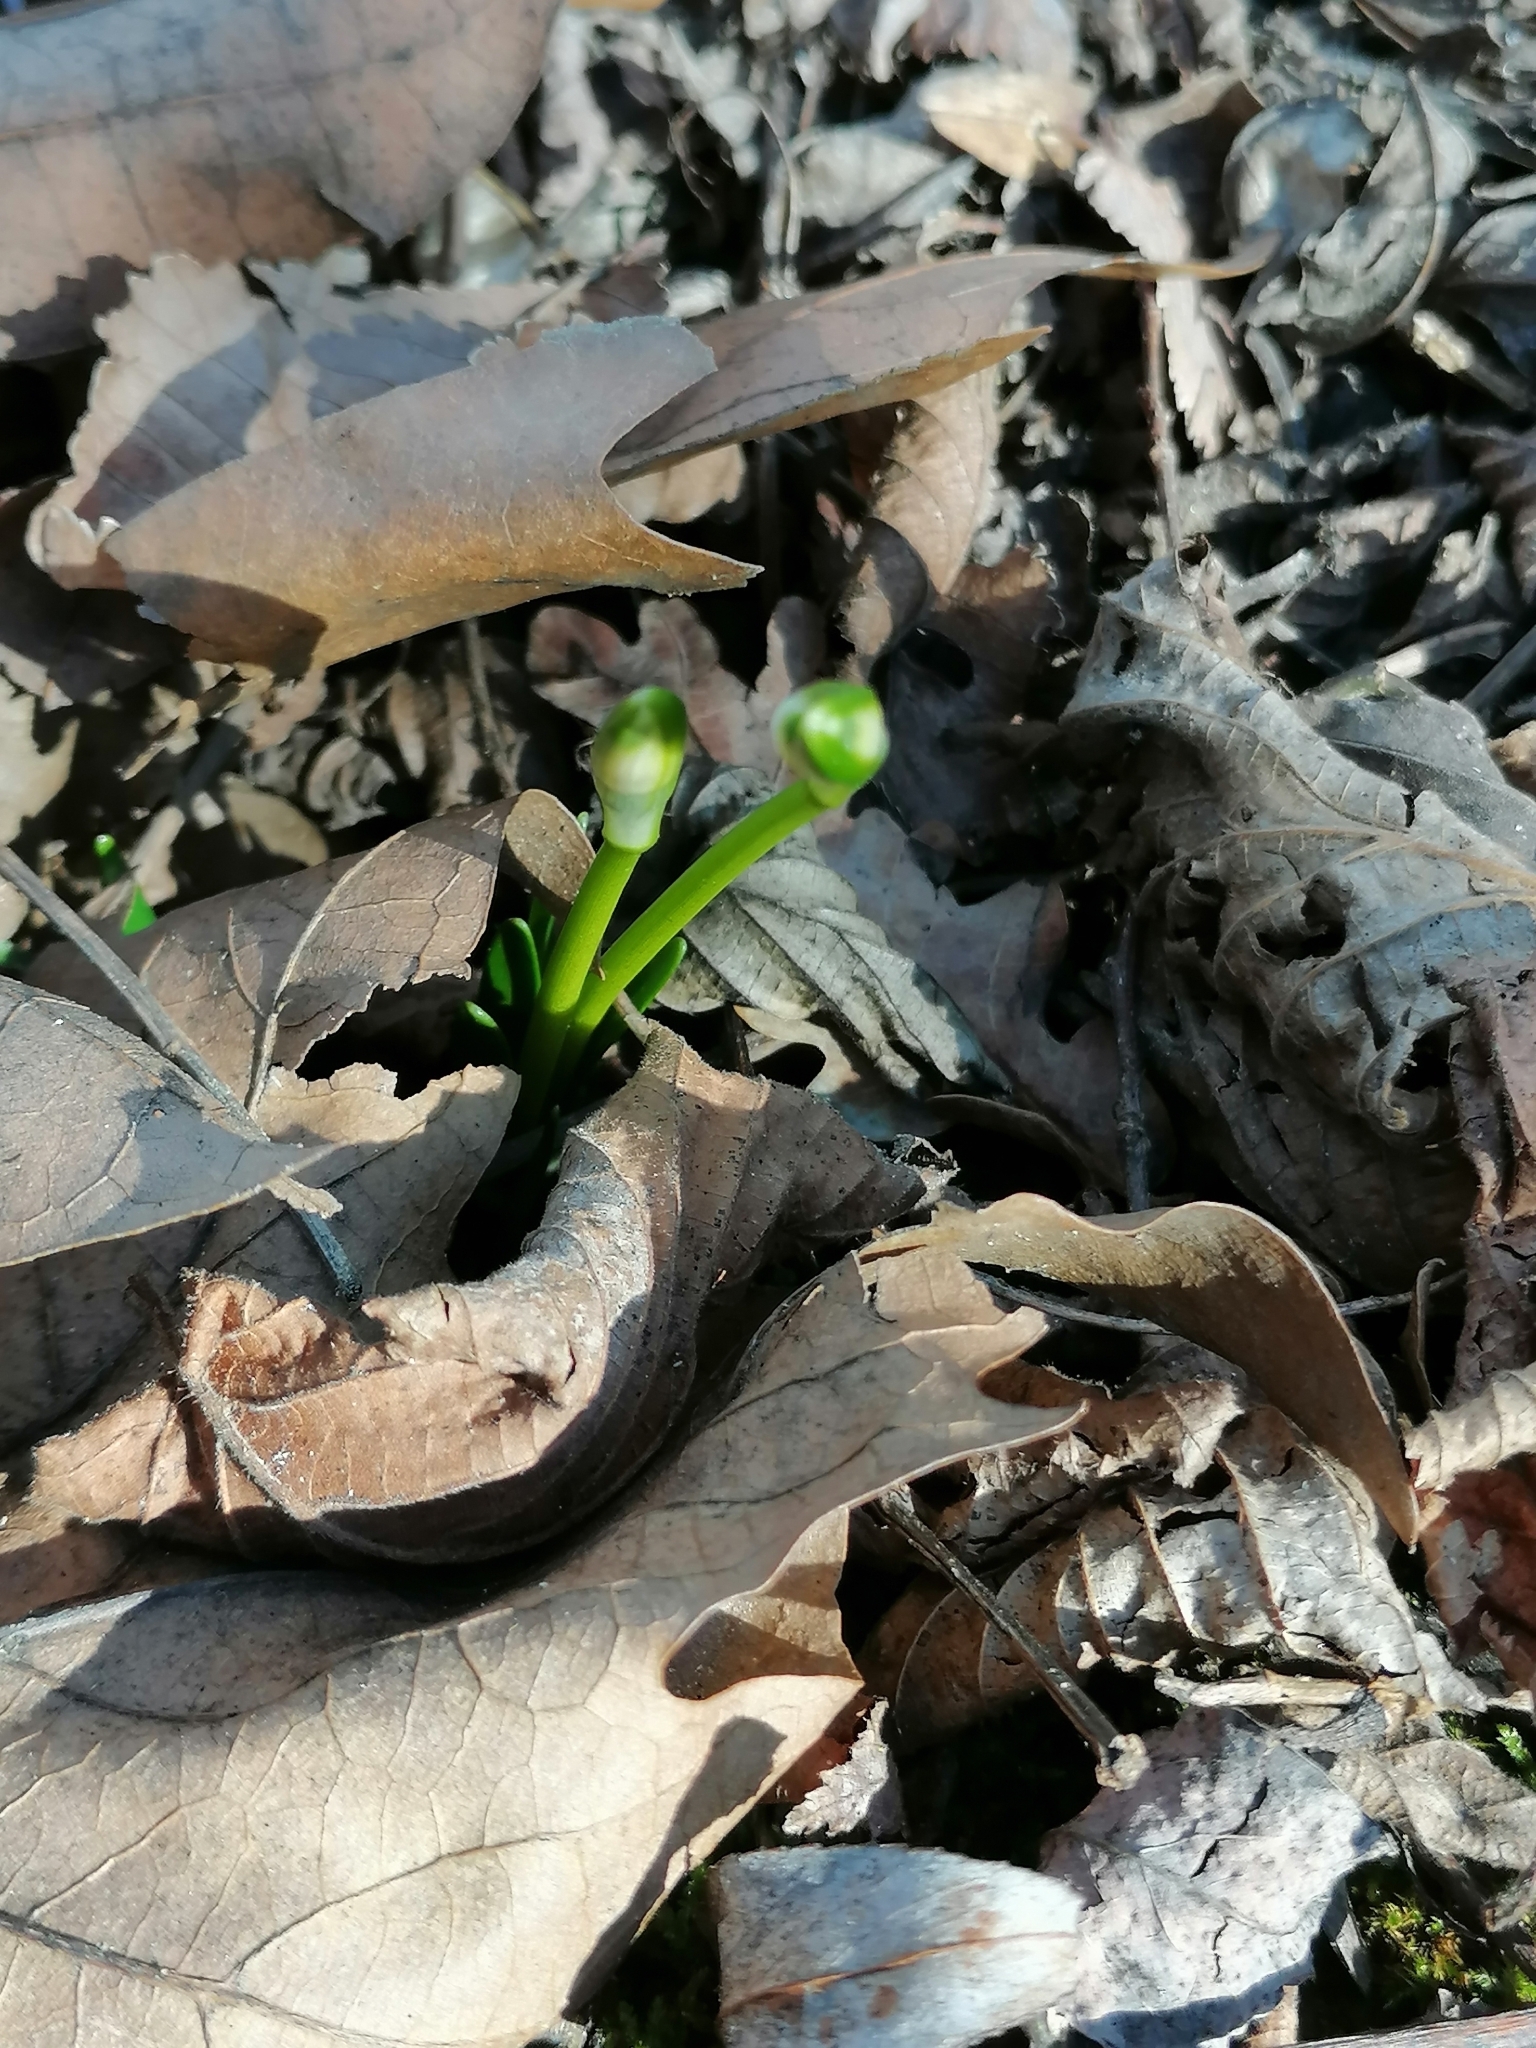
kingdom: Plantae
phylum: Tracheophyta
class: Liliopsida
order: Asparagales
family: Amaryllidaceae
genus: Leucojum
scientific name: Leucojum vernum
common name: Spring snowflake
